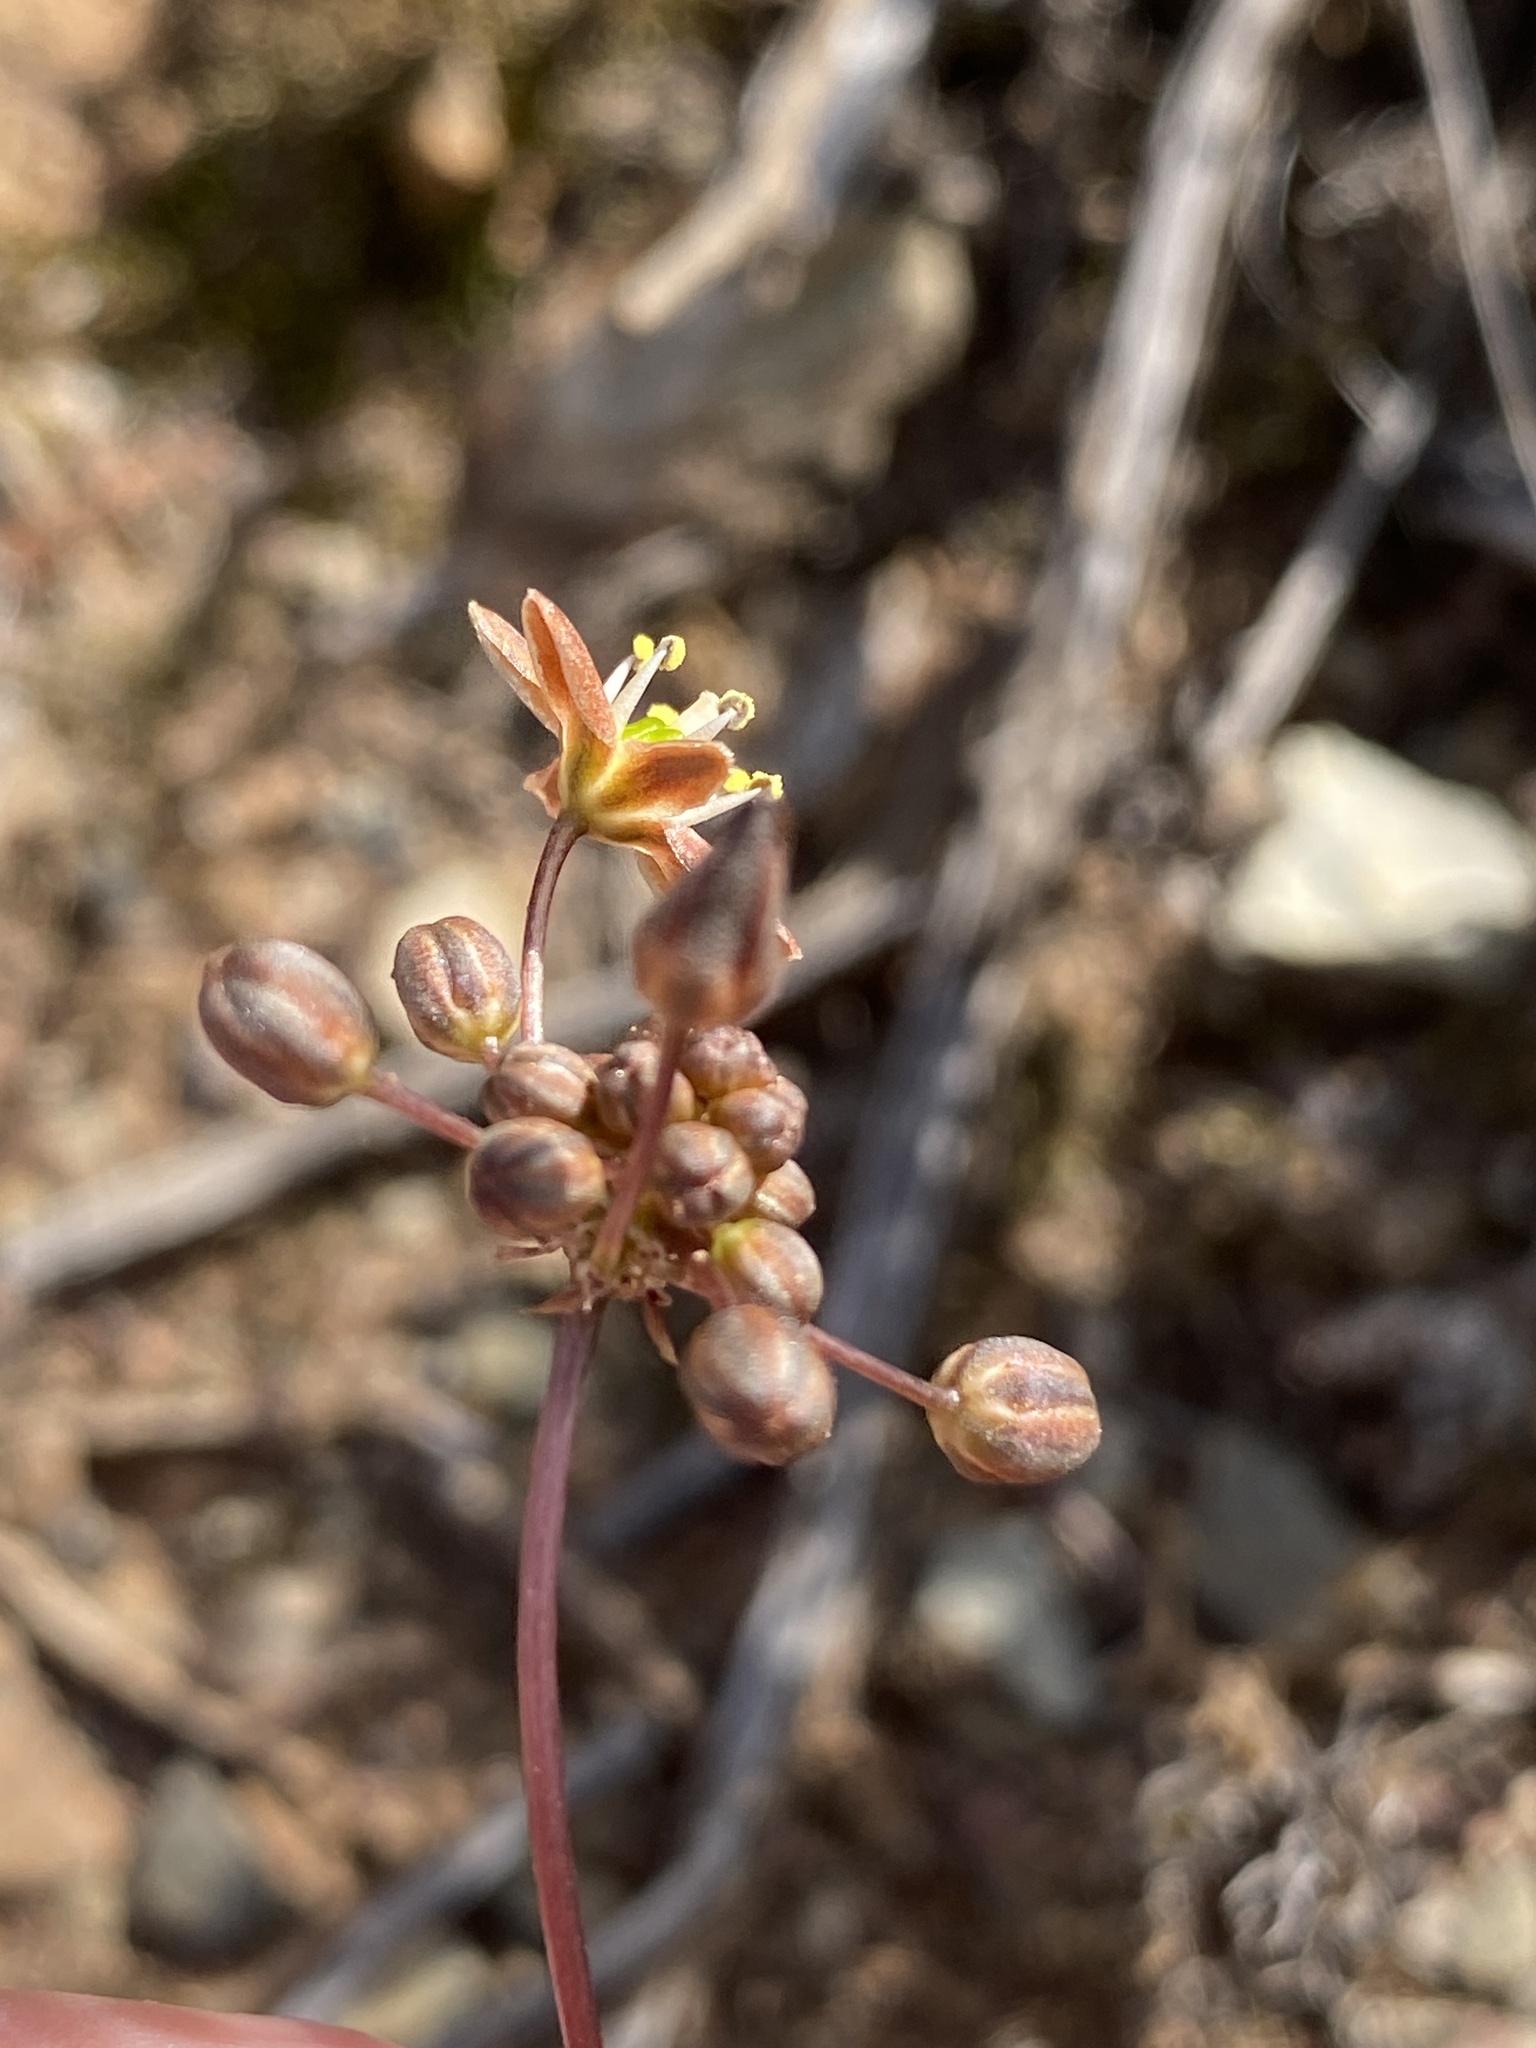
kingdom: Plantae
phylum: Tracheophyta
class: Liliopsida
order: Asparagales
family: Asparagaceae
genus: Austronea
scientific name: Austronea vermiformis
